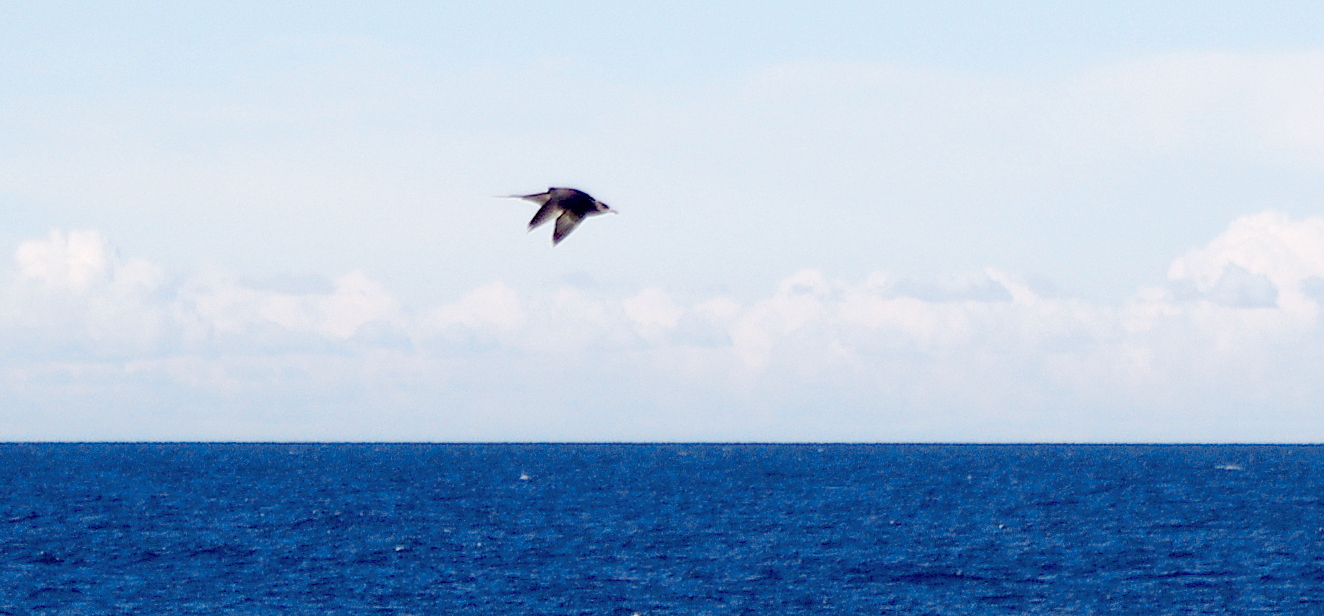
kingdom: Animalia
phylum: Chordata
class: Aves
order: Charadriiformes
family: Stercorariidae
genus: Stercorarius
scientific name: Stercorarius parasiticus
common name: Parasitic jaeger
